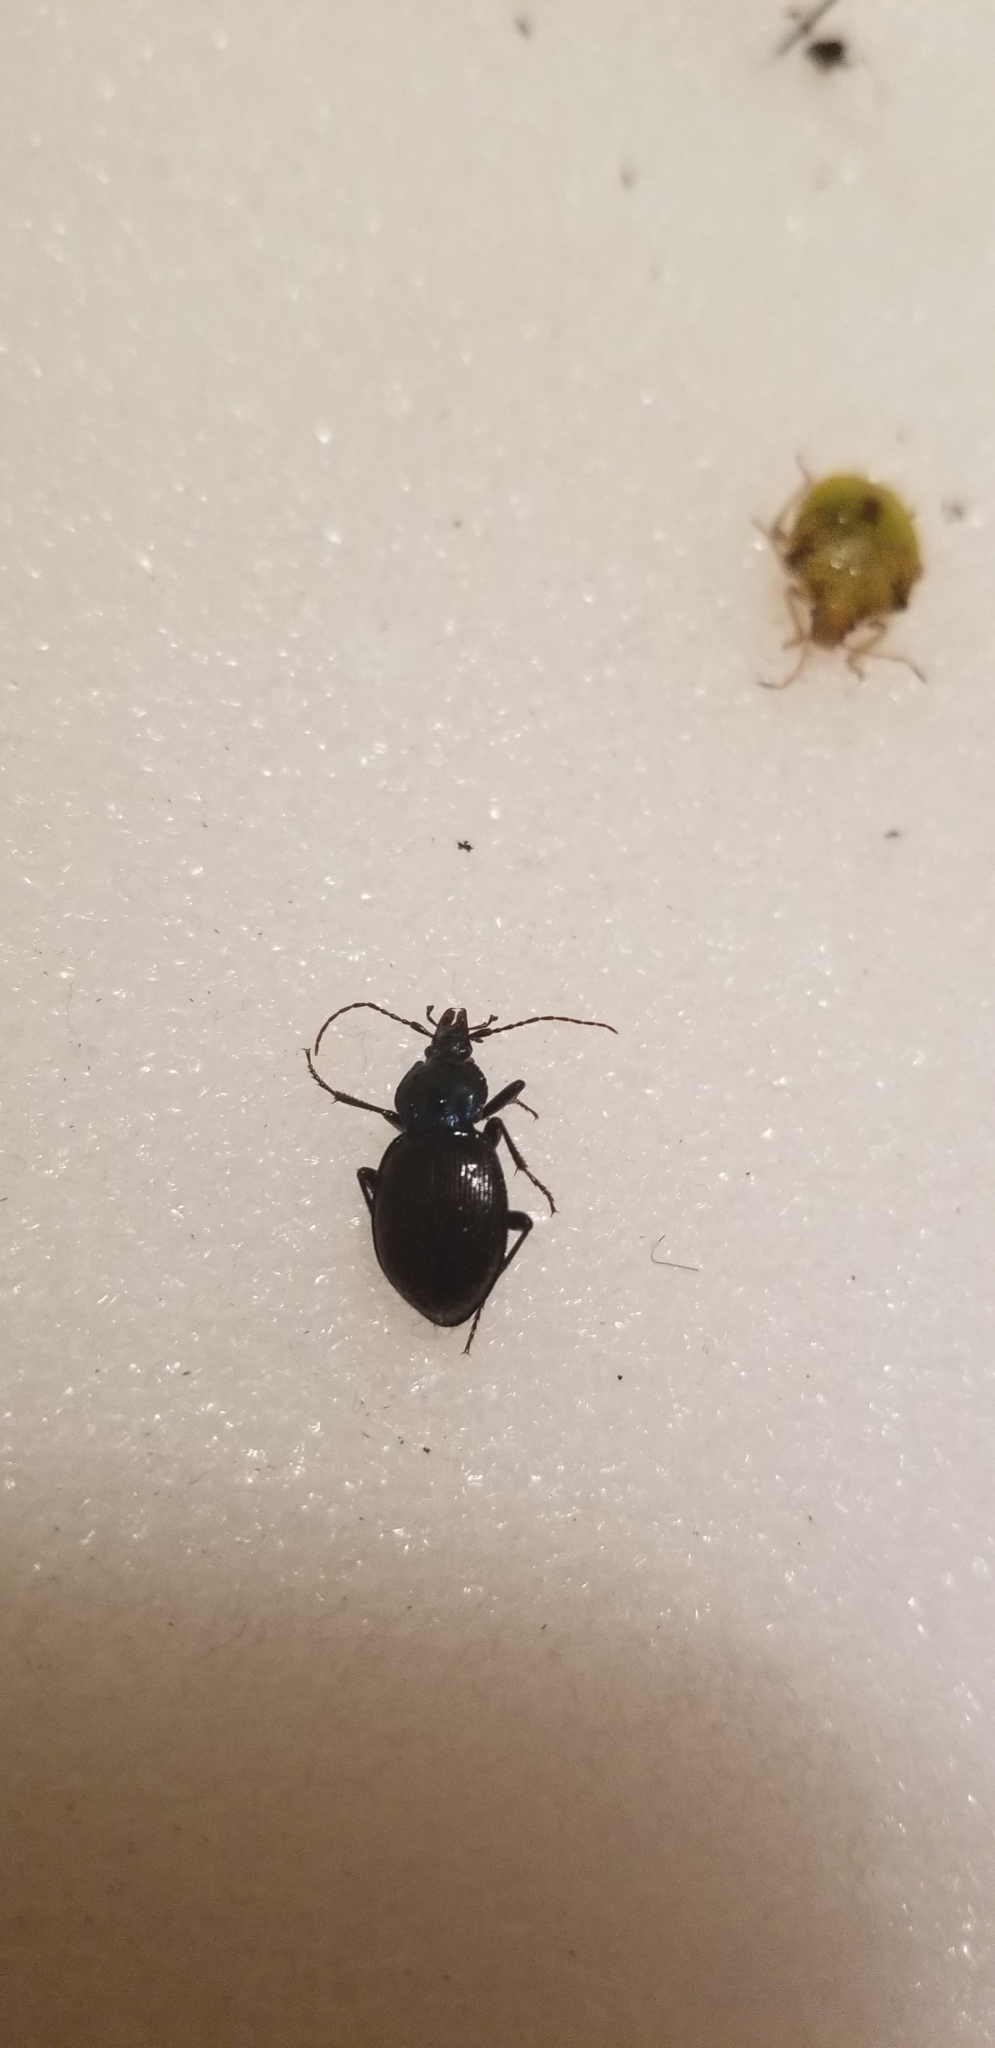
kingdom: Animalia
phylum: Arthropoda
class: Insecta
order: Coleoptera
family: Carabidae
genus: Sphaeroderus
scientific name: Sphaeroderus stenostomus
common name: Small snail-eating ground beetle
